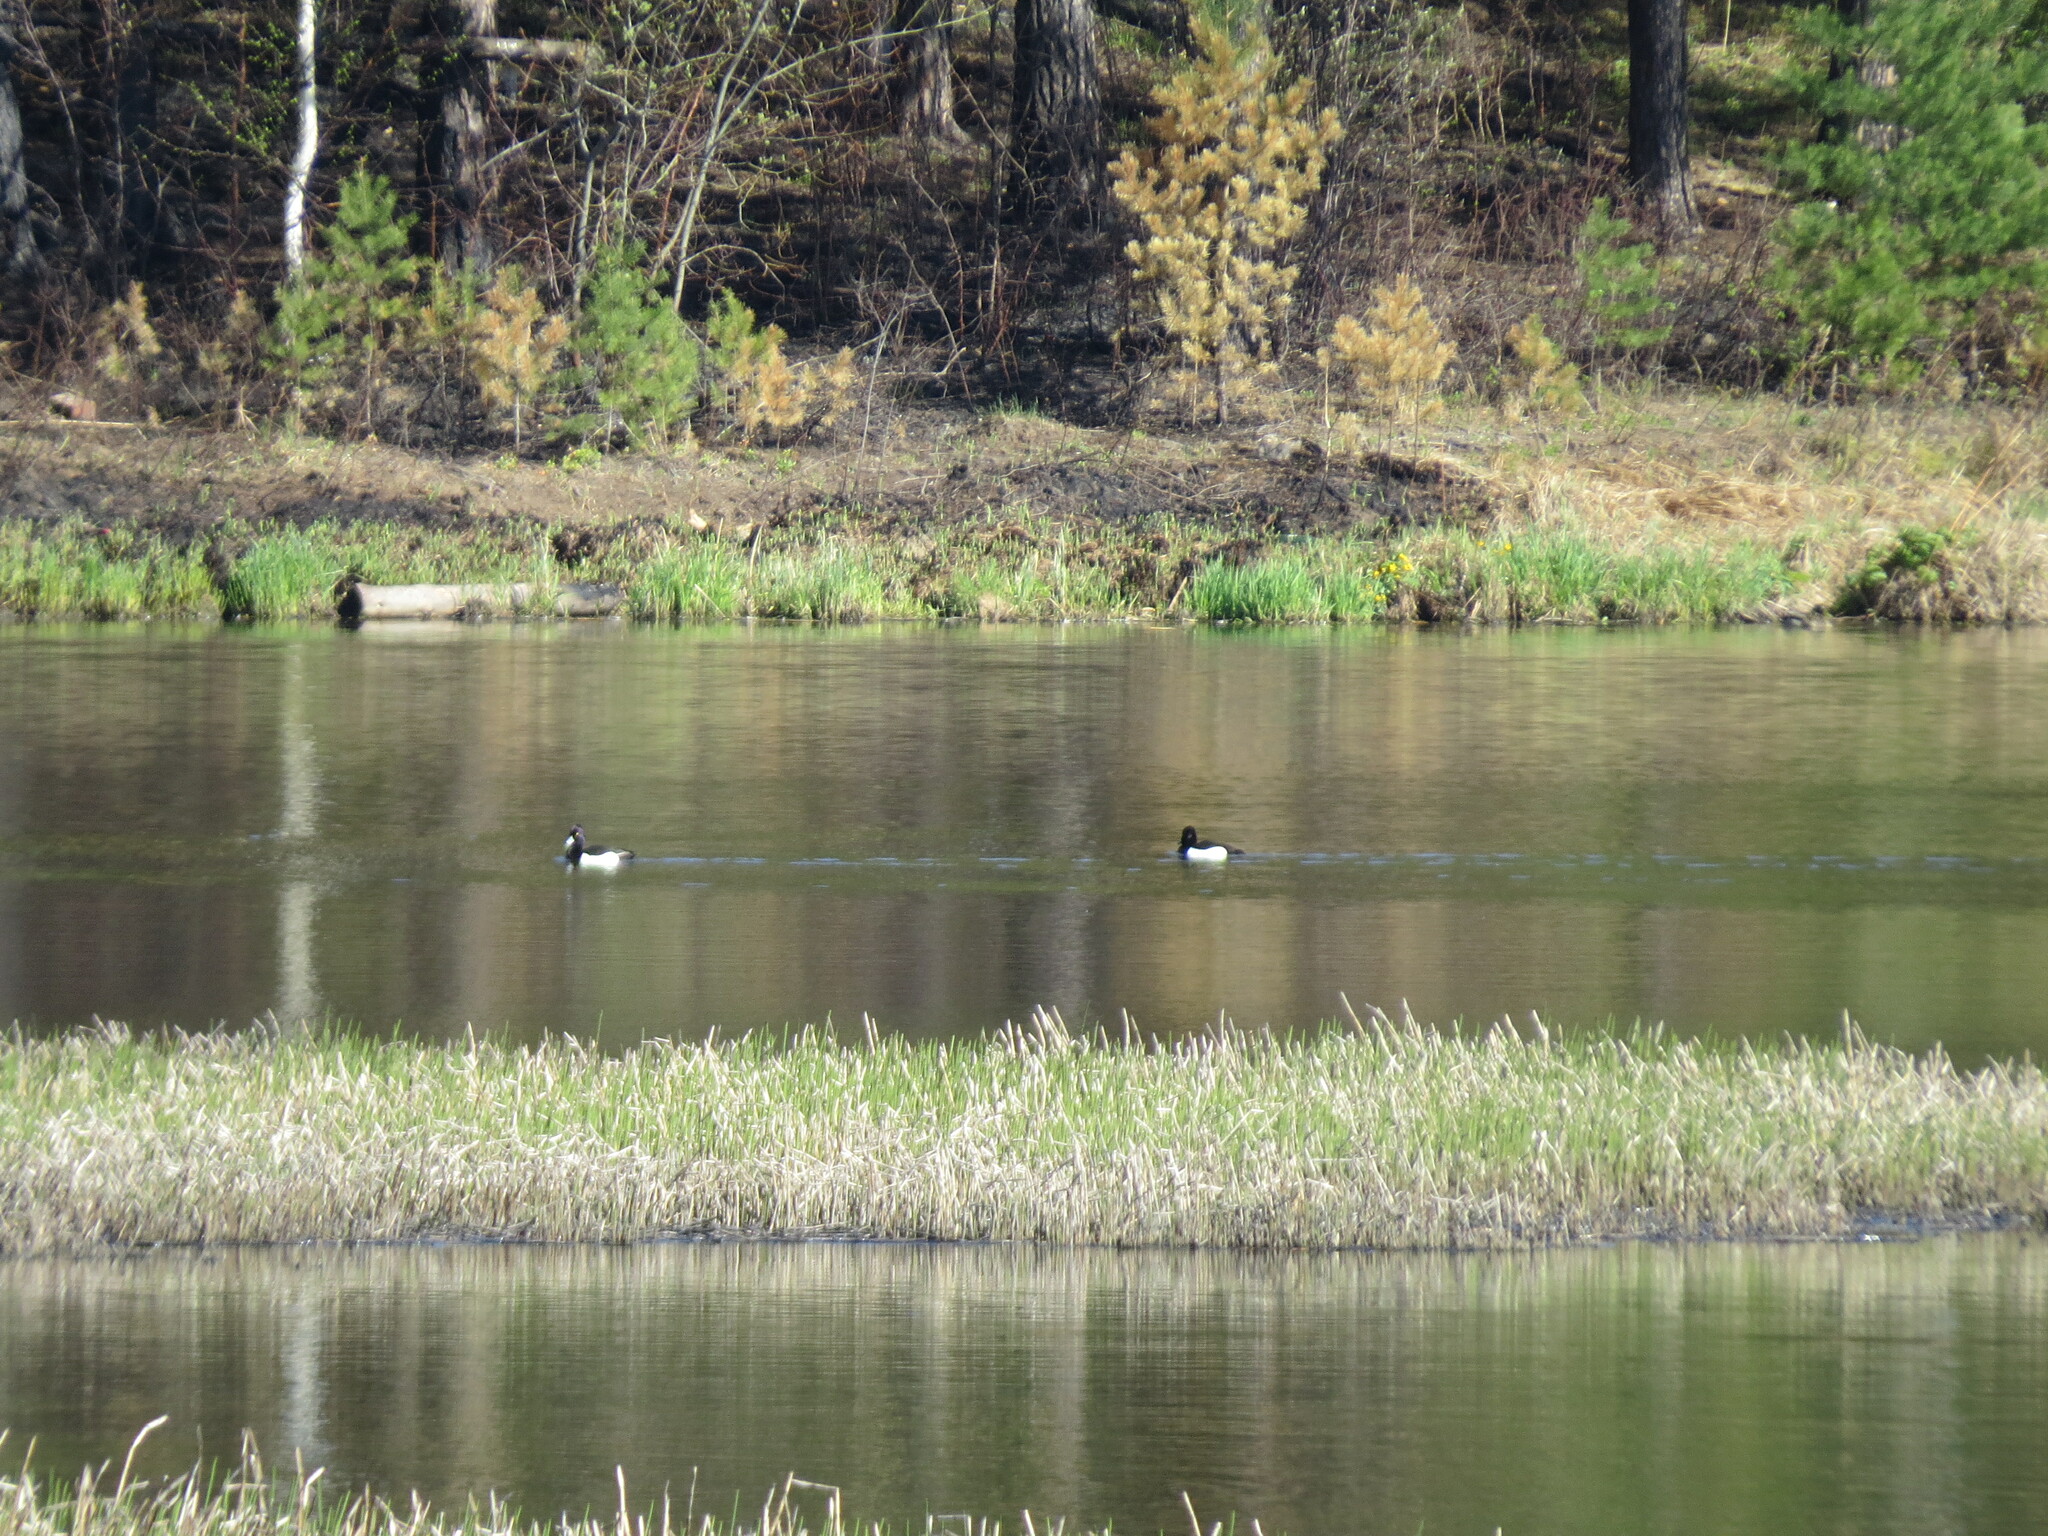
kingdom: Animalia
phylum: Chordata
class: Aves
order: Anseriformes
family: Anatidae
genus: Aythya
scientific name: Aythya fuligula
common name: Tufted duck
